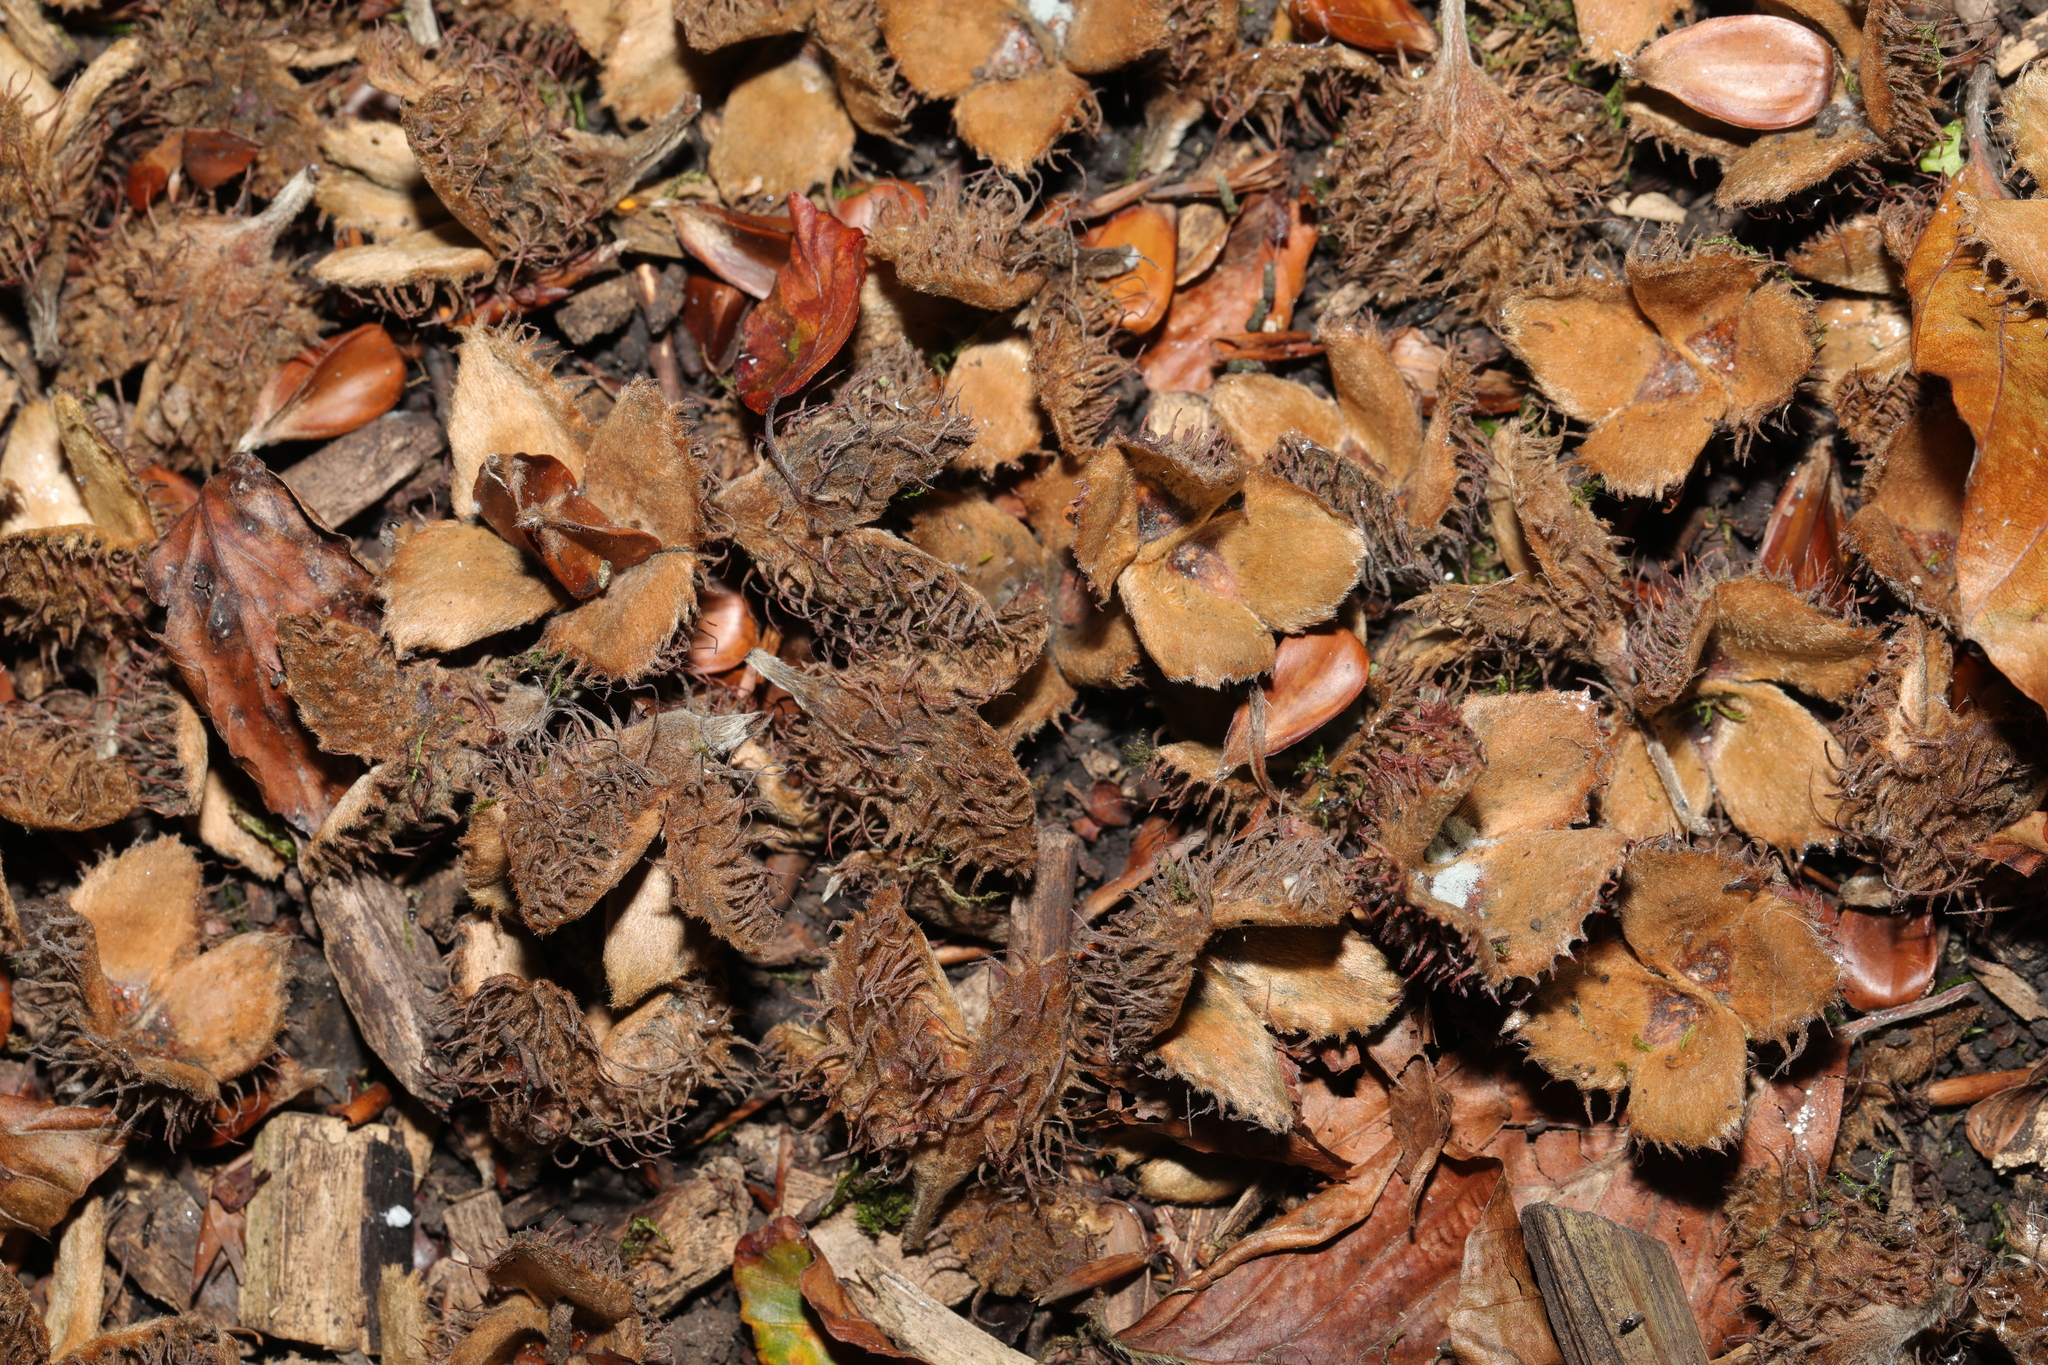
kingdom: Plantae
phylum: Tracheophyta
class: Magnoliopsida
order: Fagales
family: Fagaceae
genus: Fagus
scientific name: Fagus sylvatica
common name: Beech
